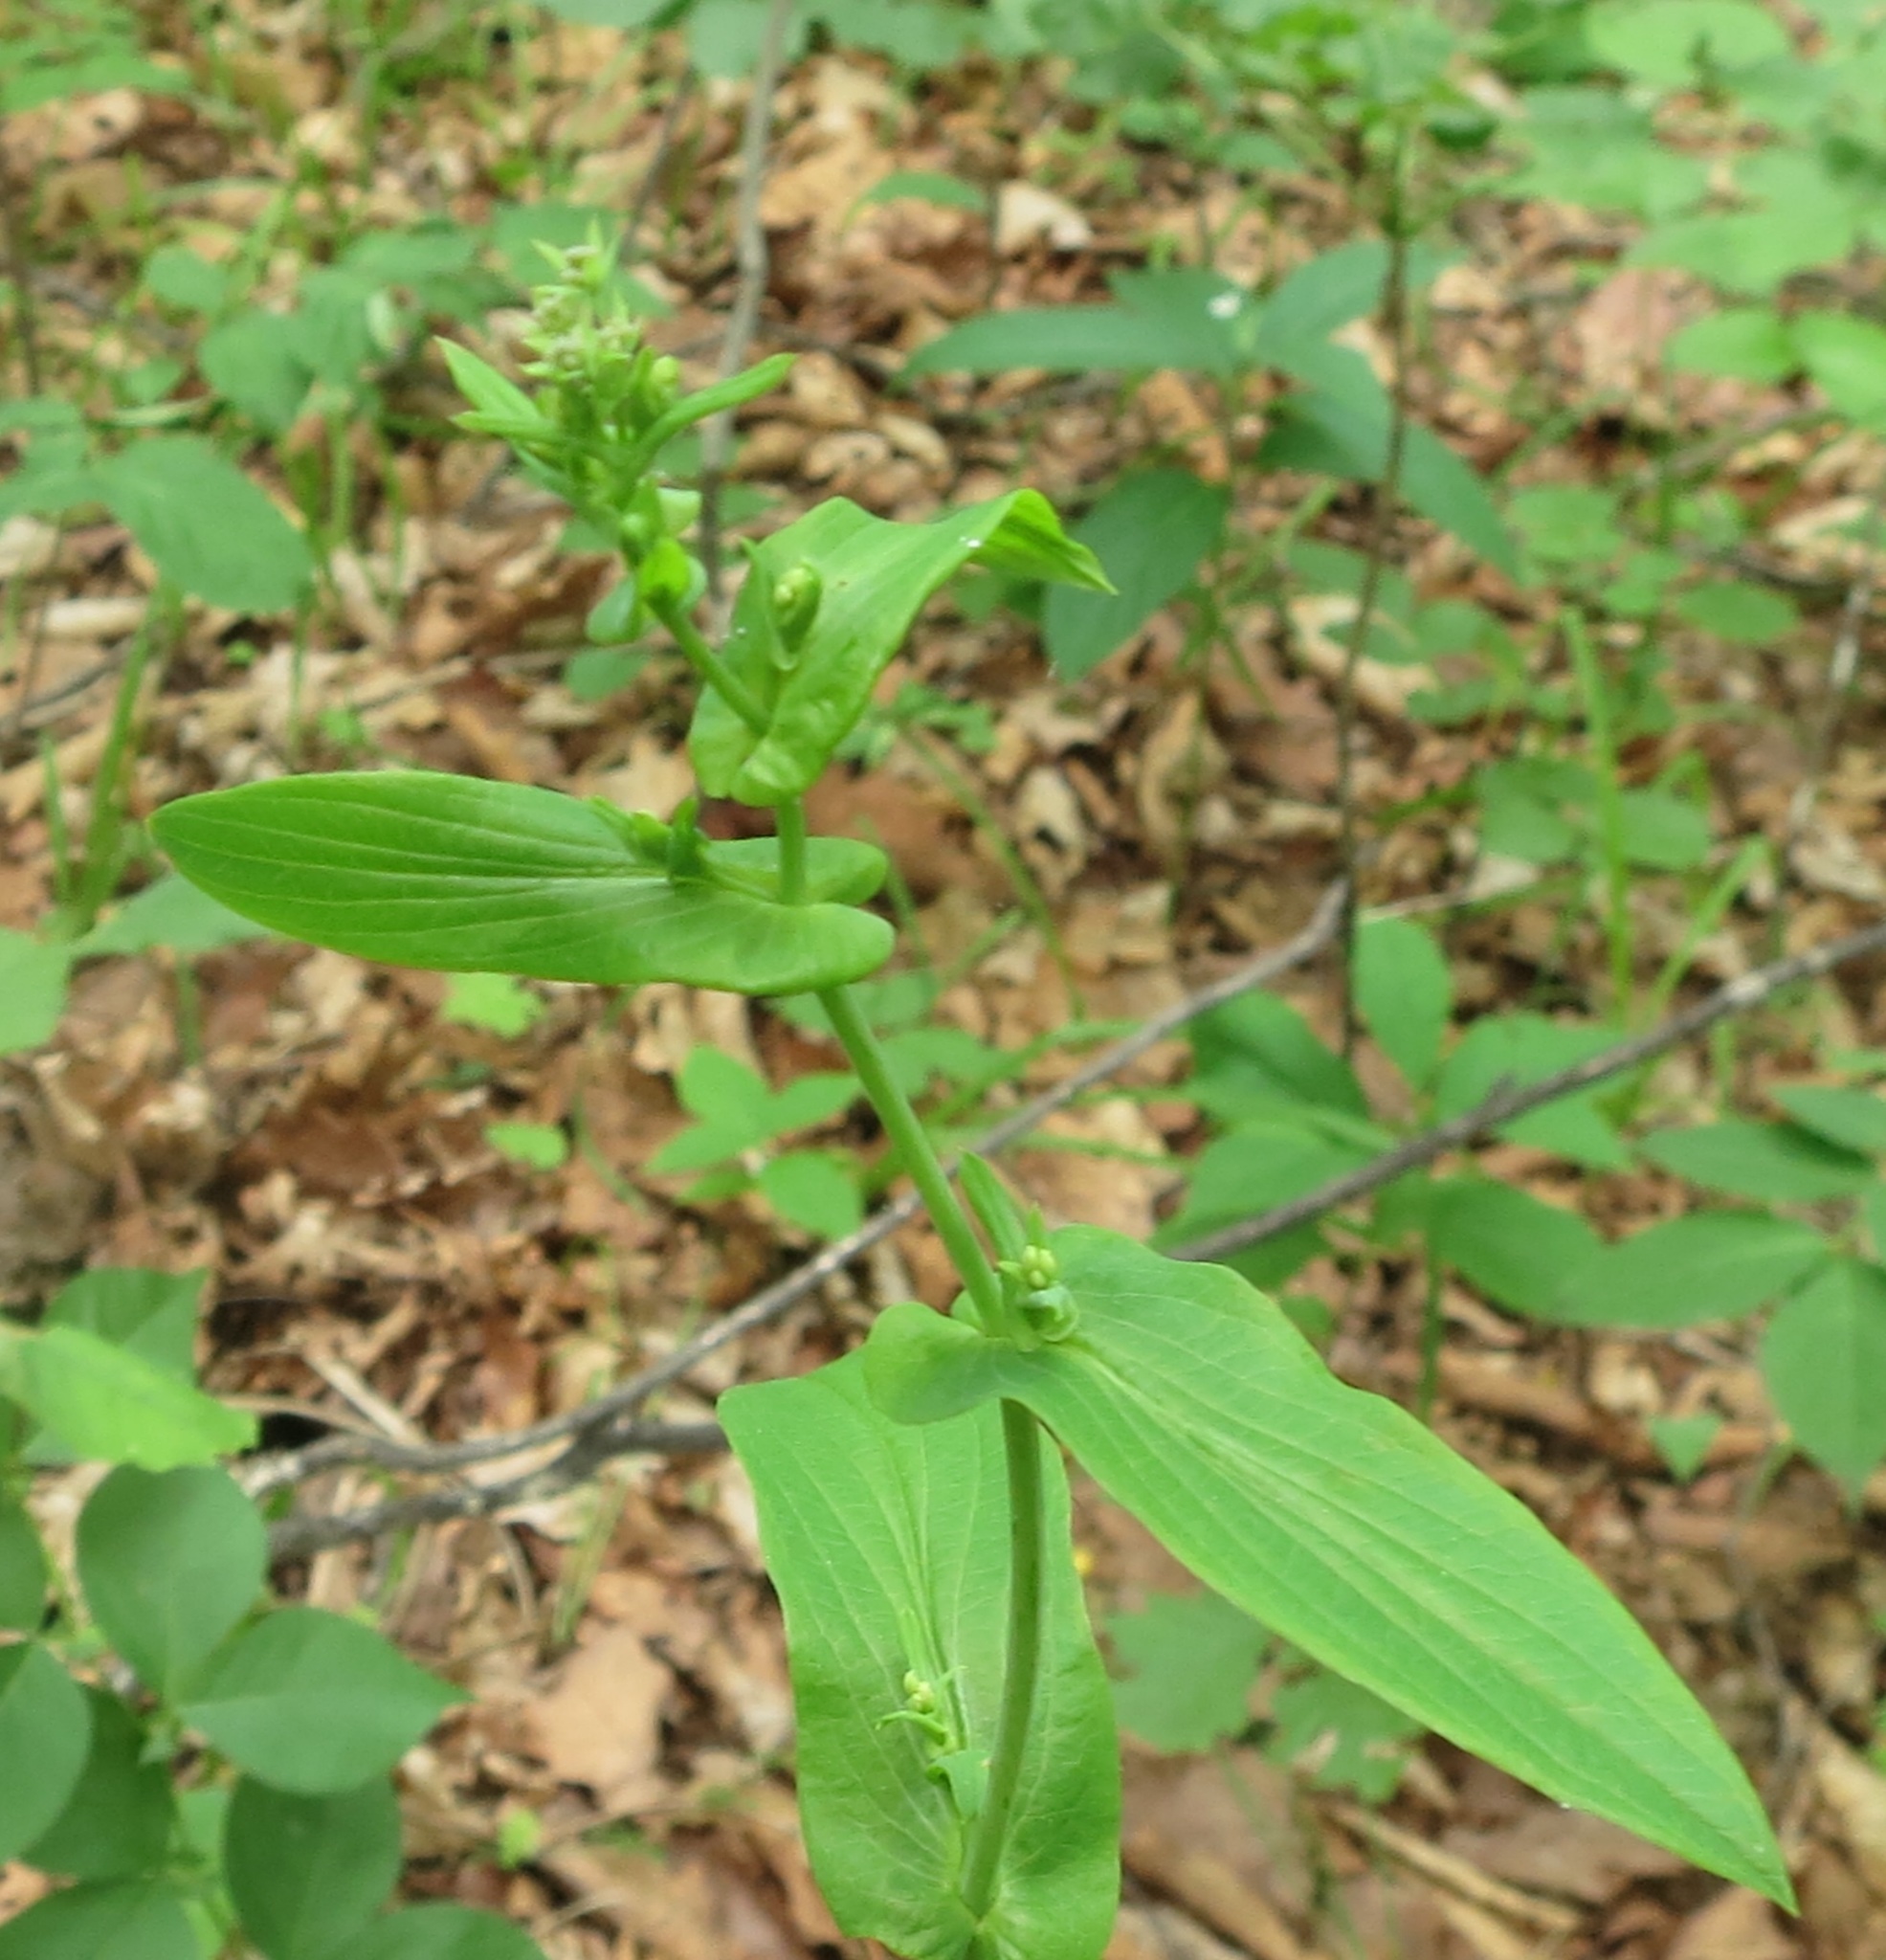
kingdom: Plantae
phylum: Tracheophyta
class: Magnoliopsida
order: Apiales
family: Apiaceae
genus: Bupleurum
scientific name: Bupleurum longiradiatum
